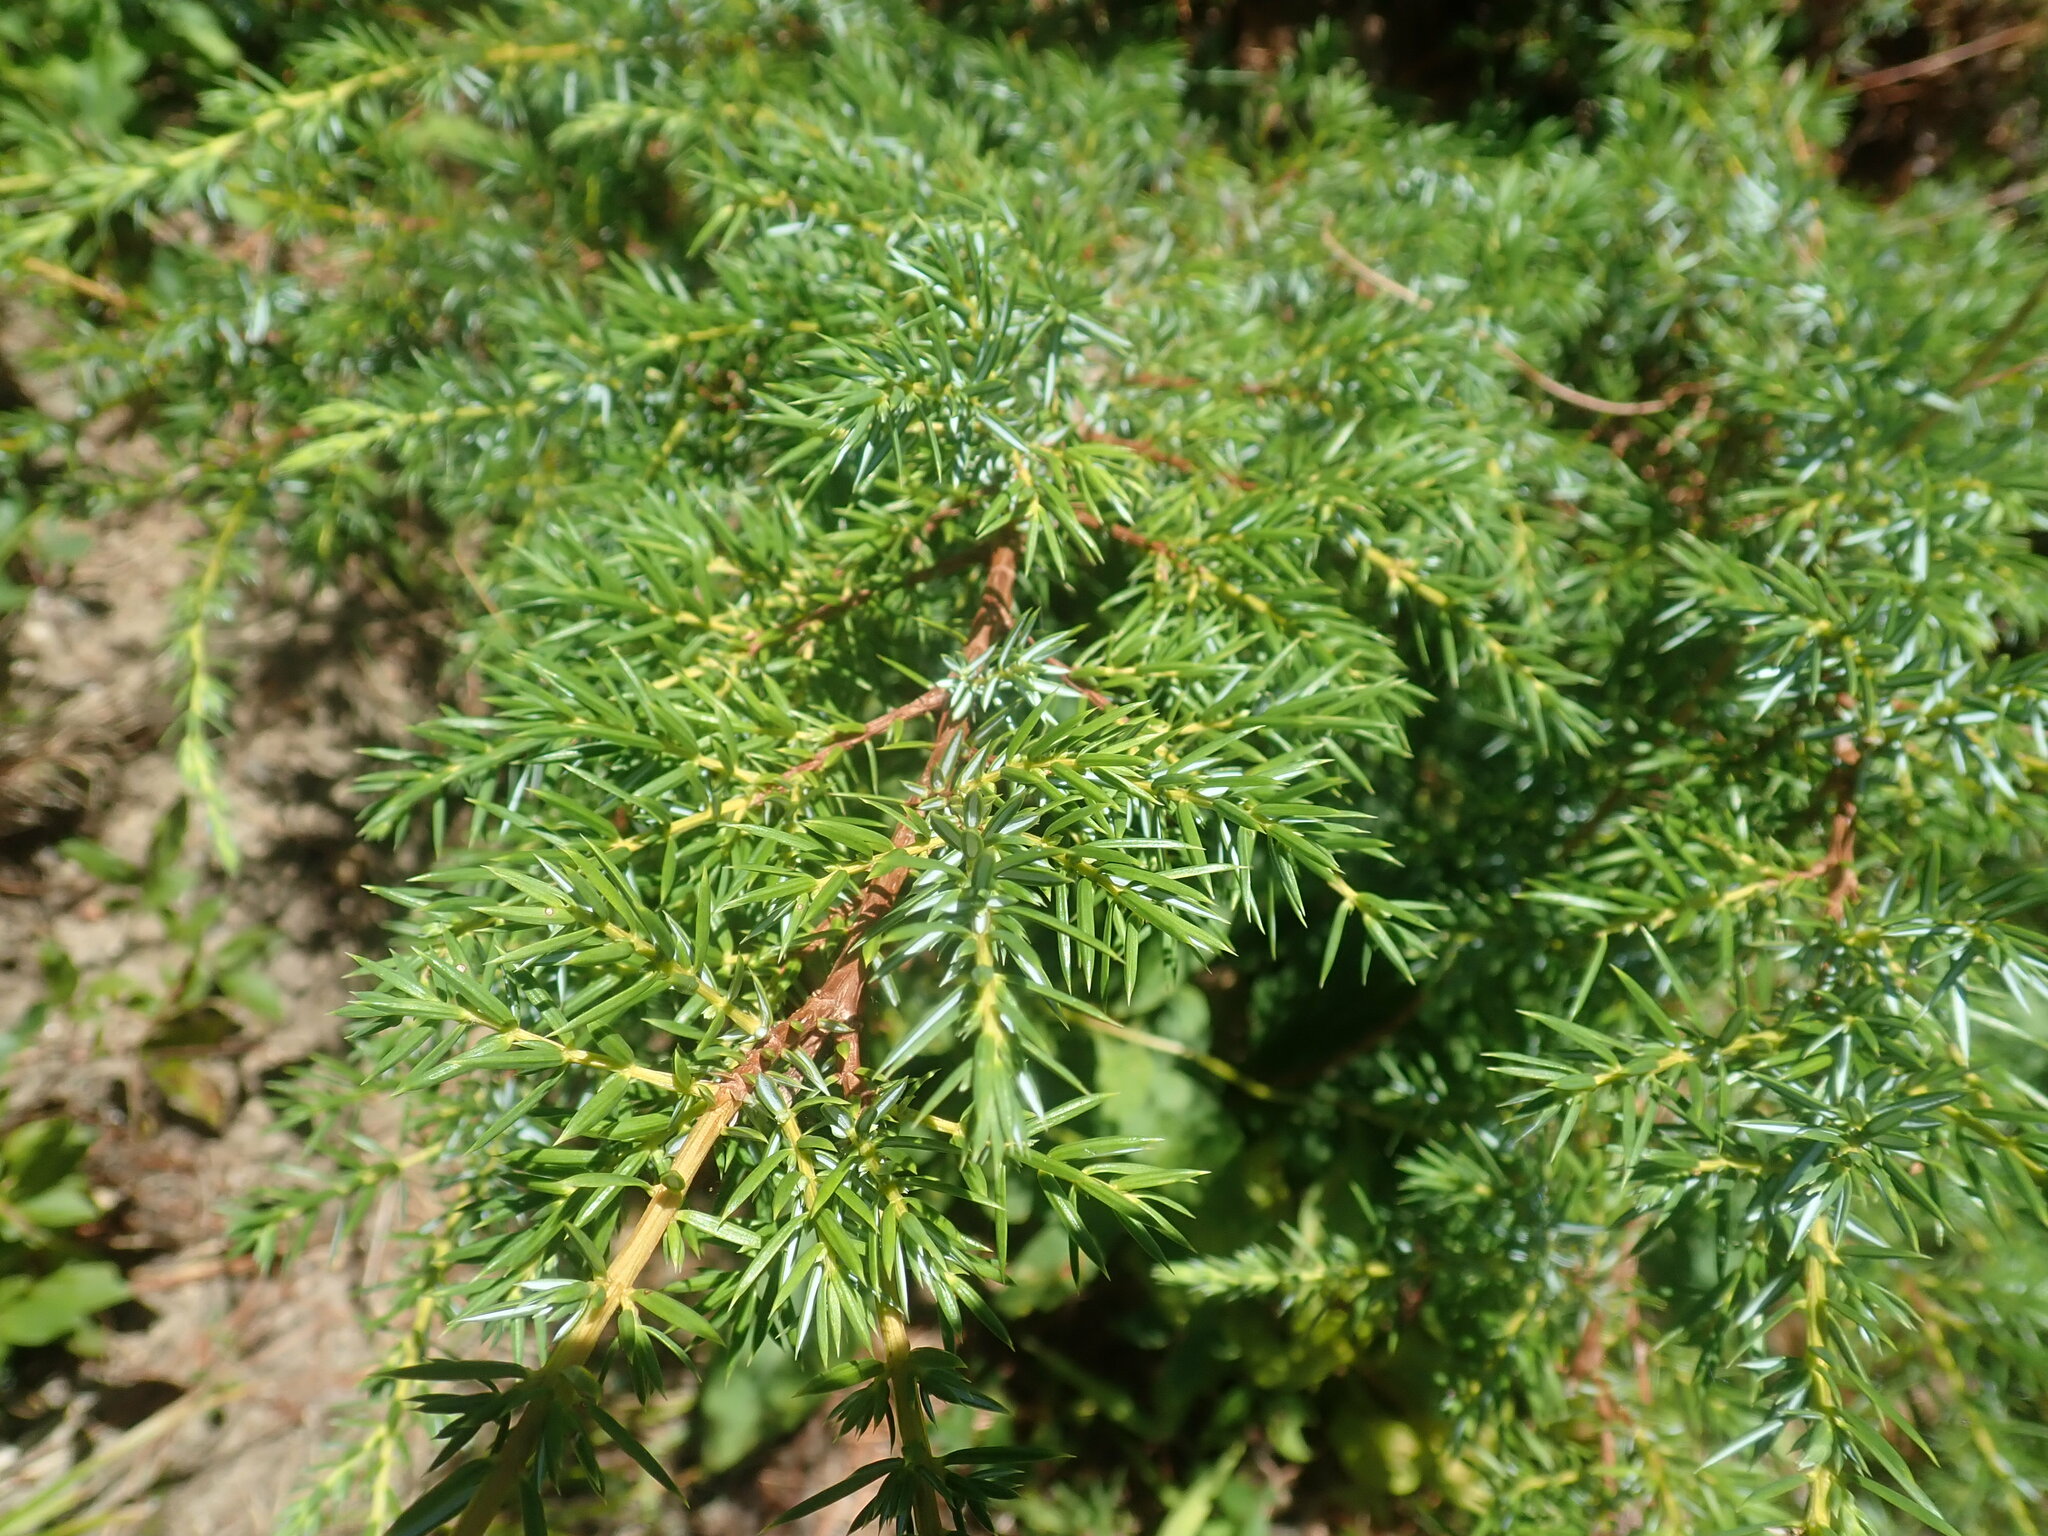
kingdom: Plantae
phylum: Tracheophyta
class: Pinopsida
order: Pinales
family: Cupressaceae
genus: Juniperus
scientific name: Juniperus communis
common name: Common juniper
